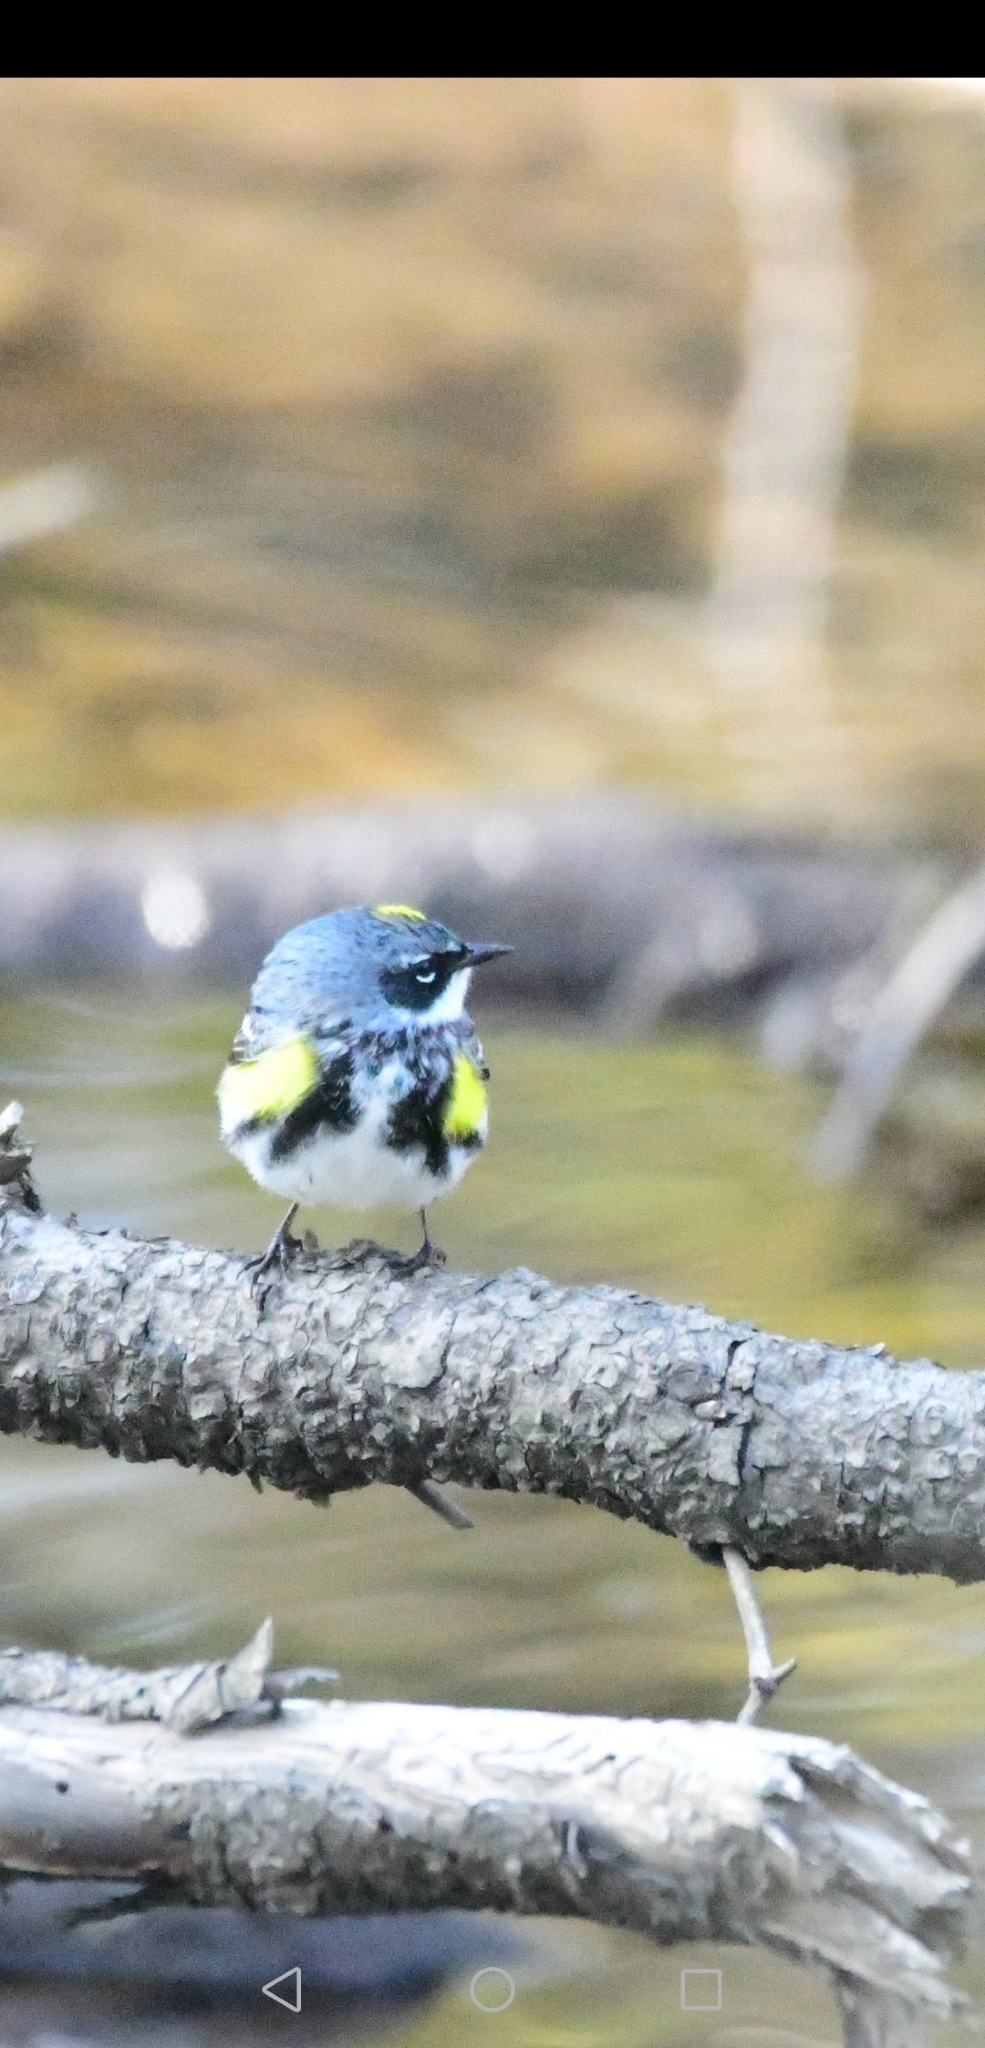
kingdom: Animalia
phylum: Chordata
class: Aves
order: Passeriformes
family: Parulidae
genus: Setophaga
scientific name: Setophaga coronata
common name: Myrtle warbler
